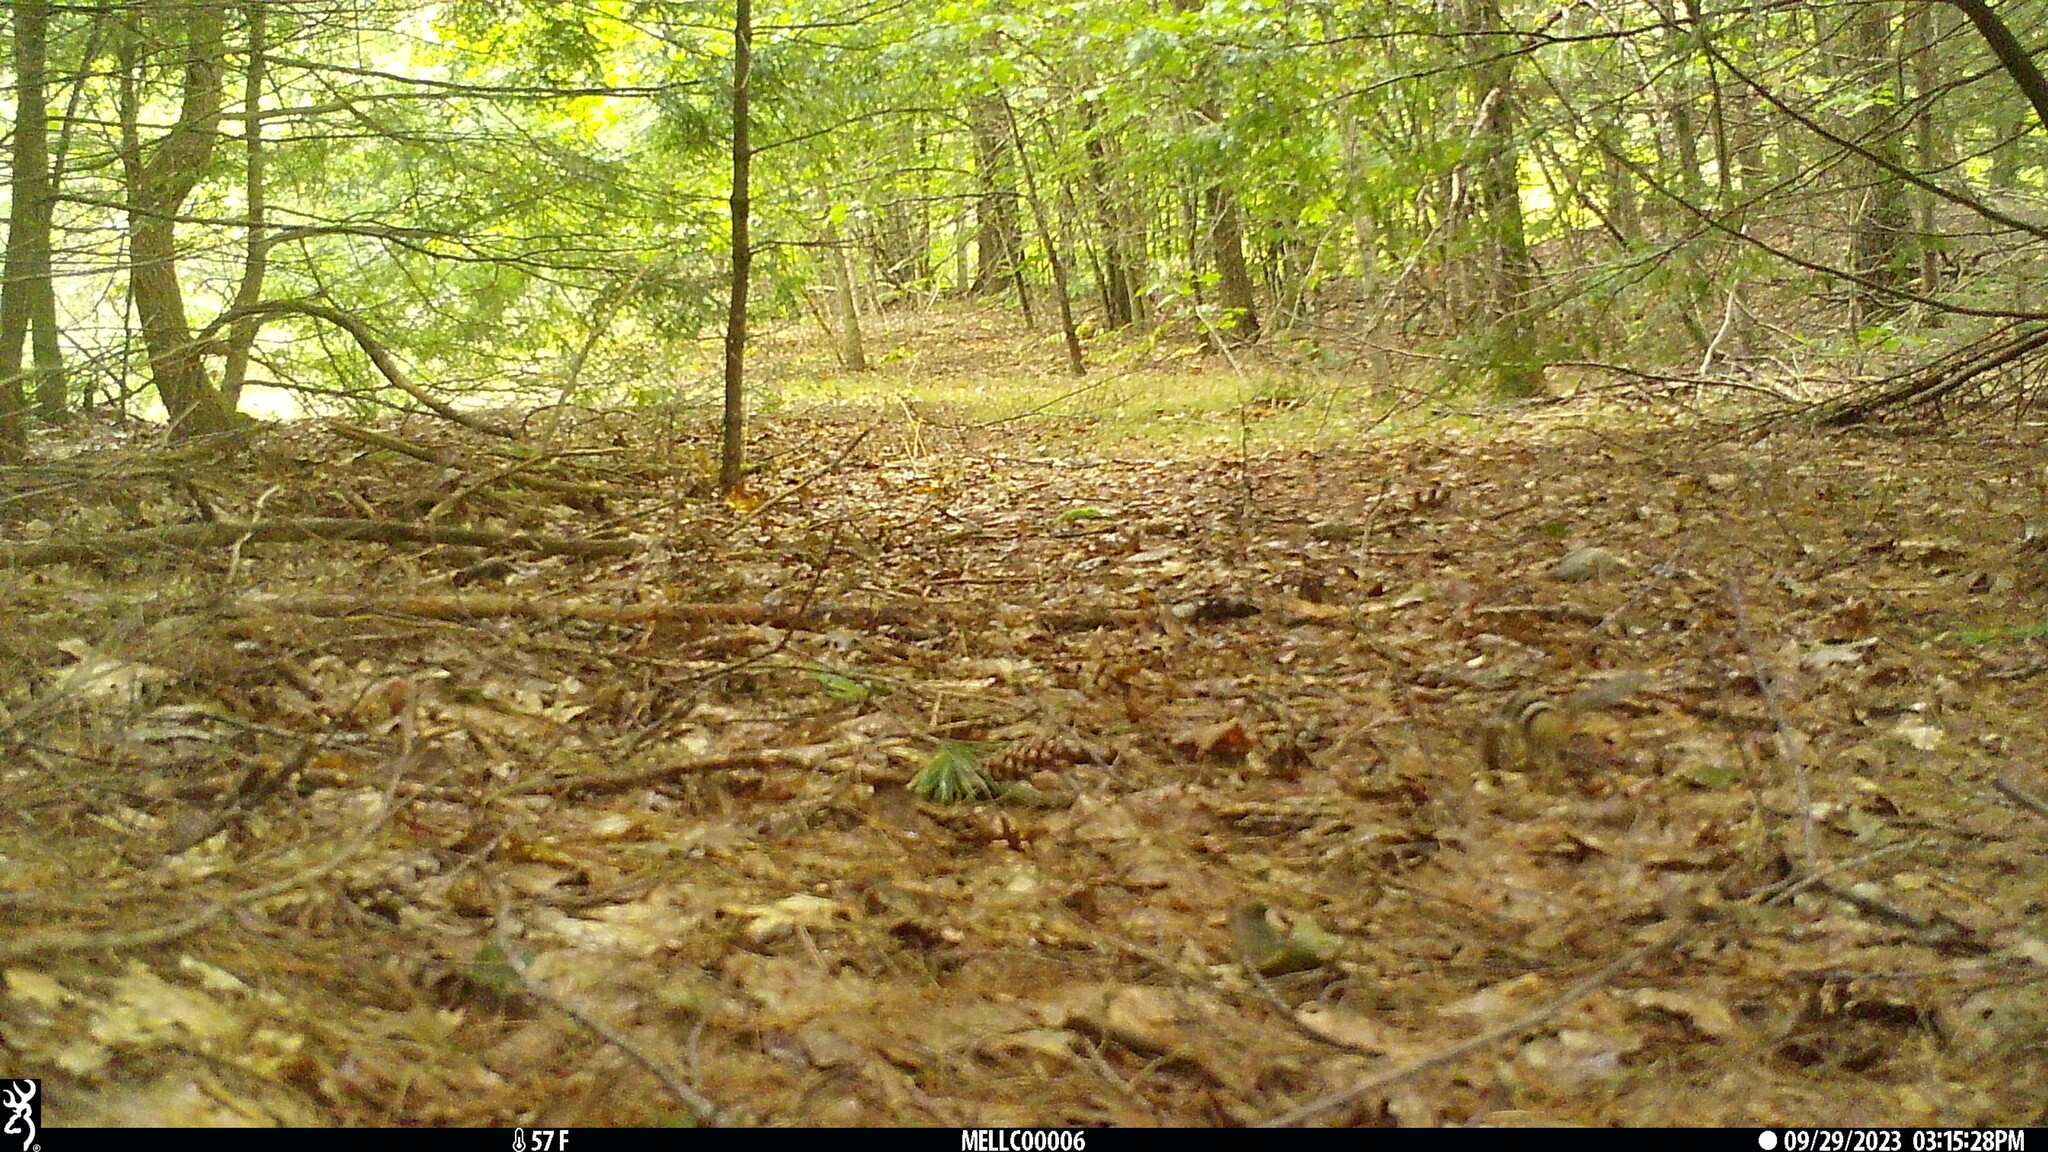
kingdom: Animalia
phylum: Chordata
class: Mammalia
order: Rodentia
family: Sciuridae
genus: Tamias
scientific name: Tamias striatus
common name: Eastern chipmunk
